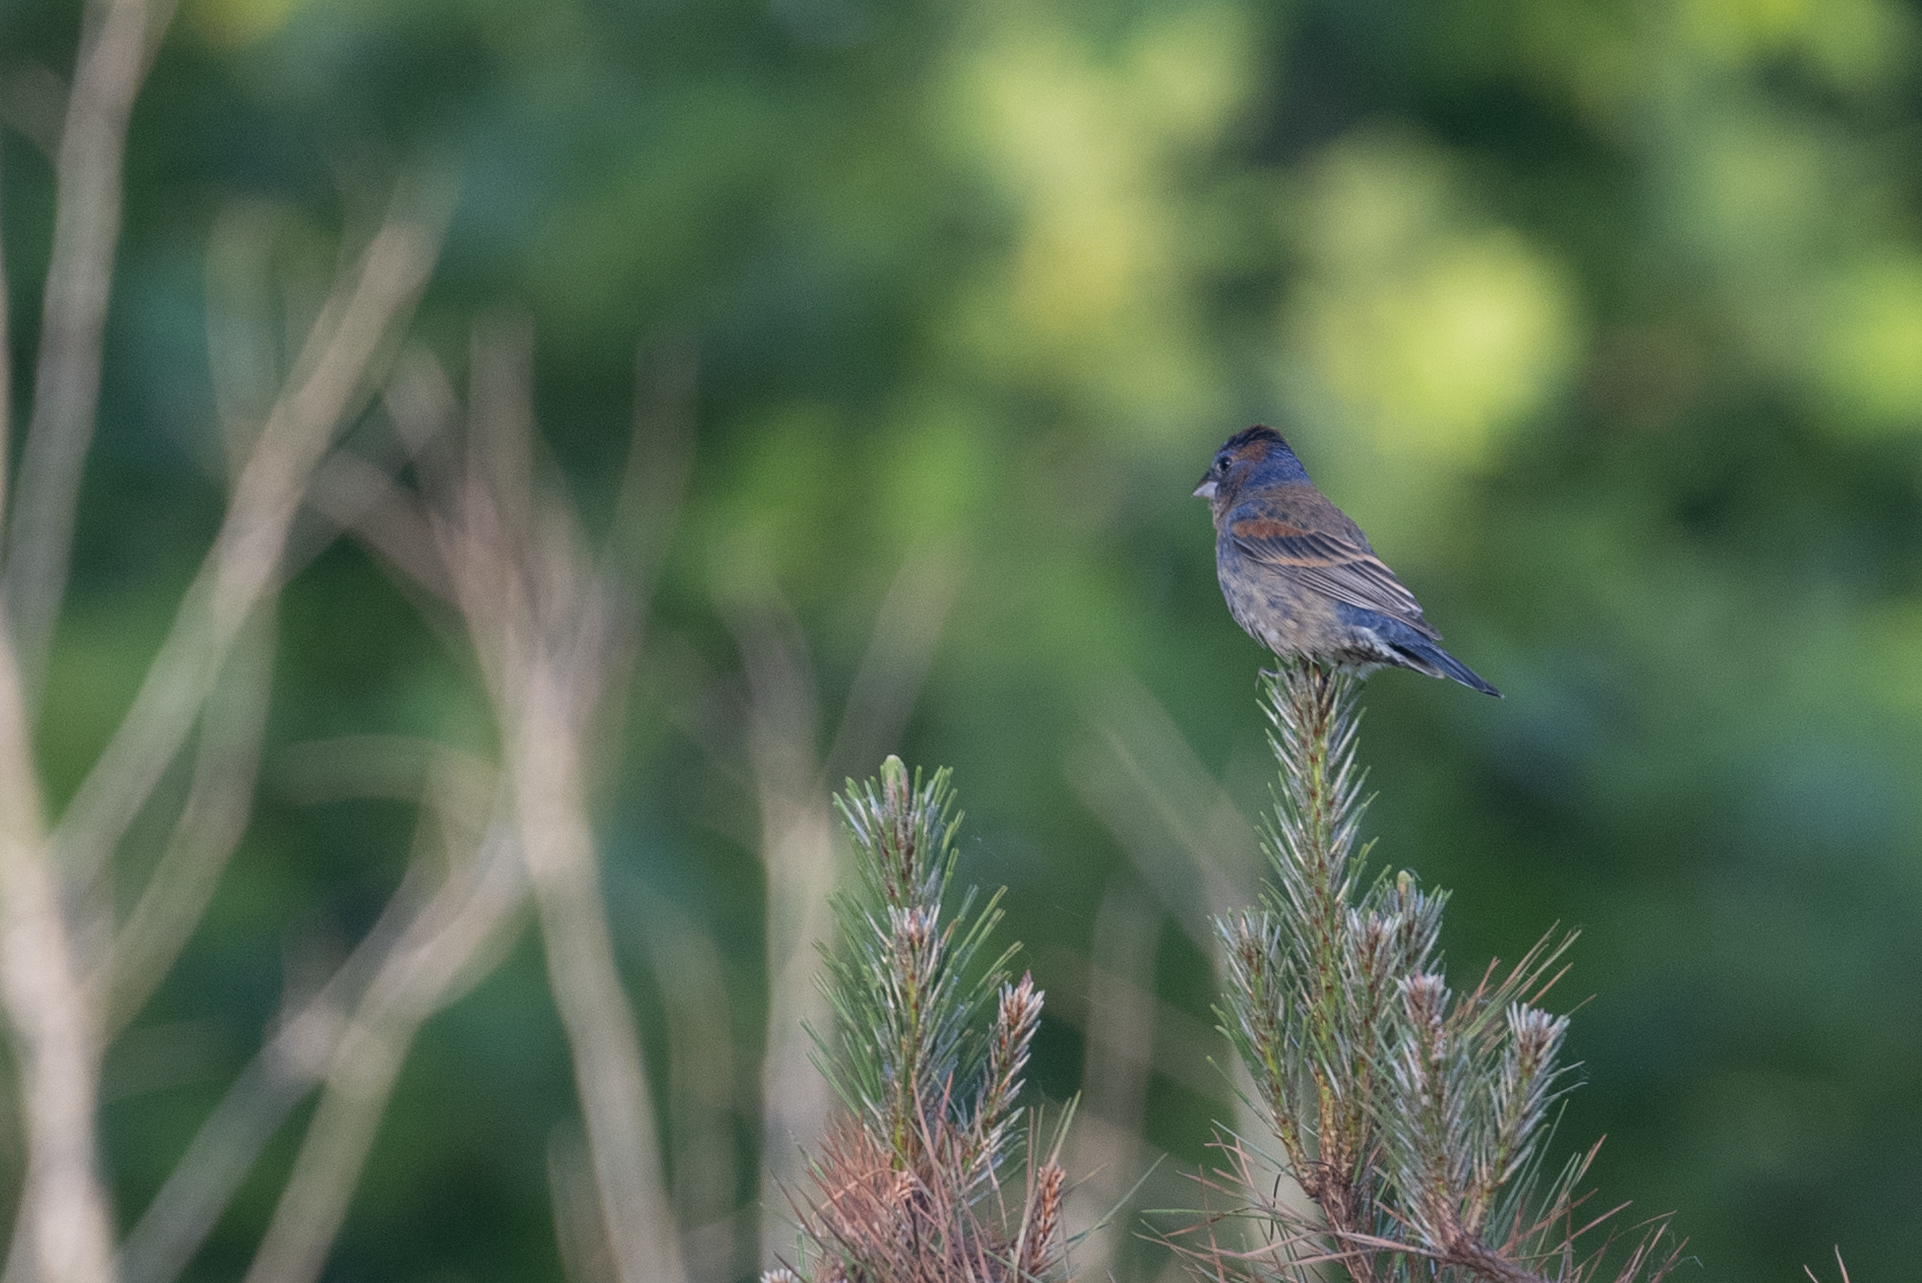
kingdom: Animalia
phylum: Chordata
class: Aves
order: Passeriformes
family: Cardinalidae
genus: Passerina
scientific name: Passerina caerulea
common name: Blue grosbeak
